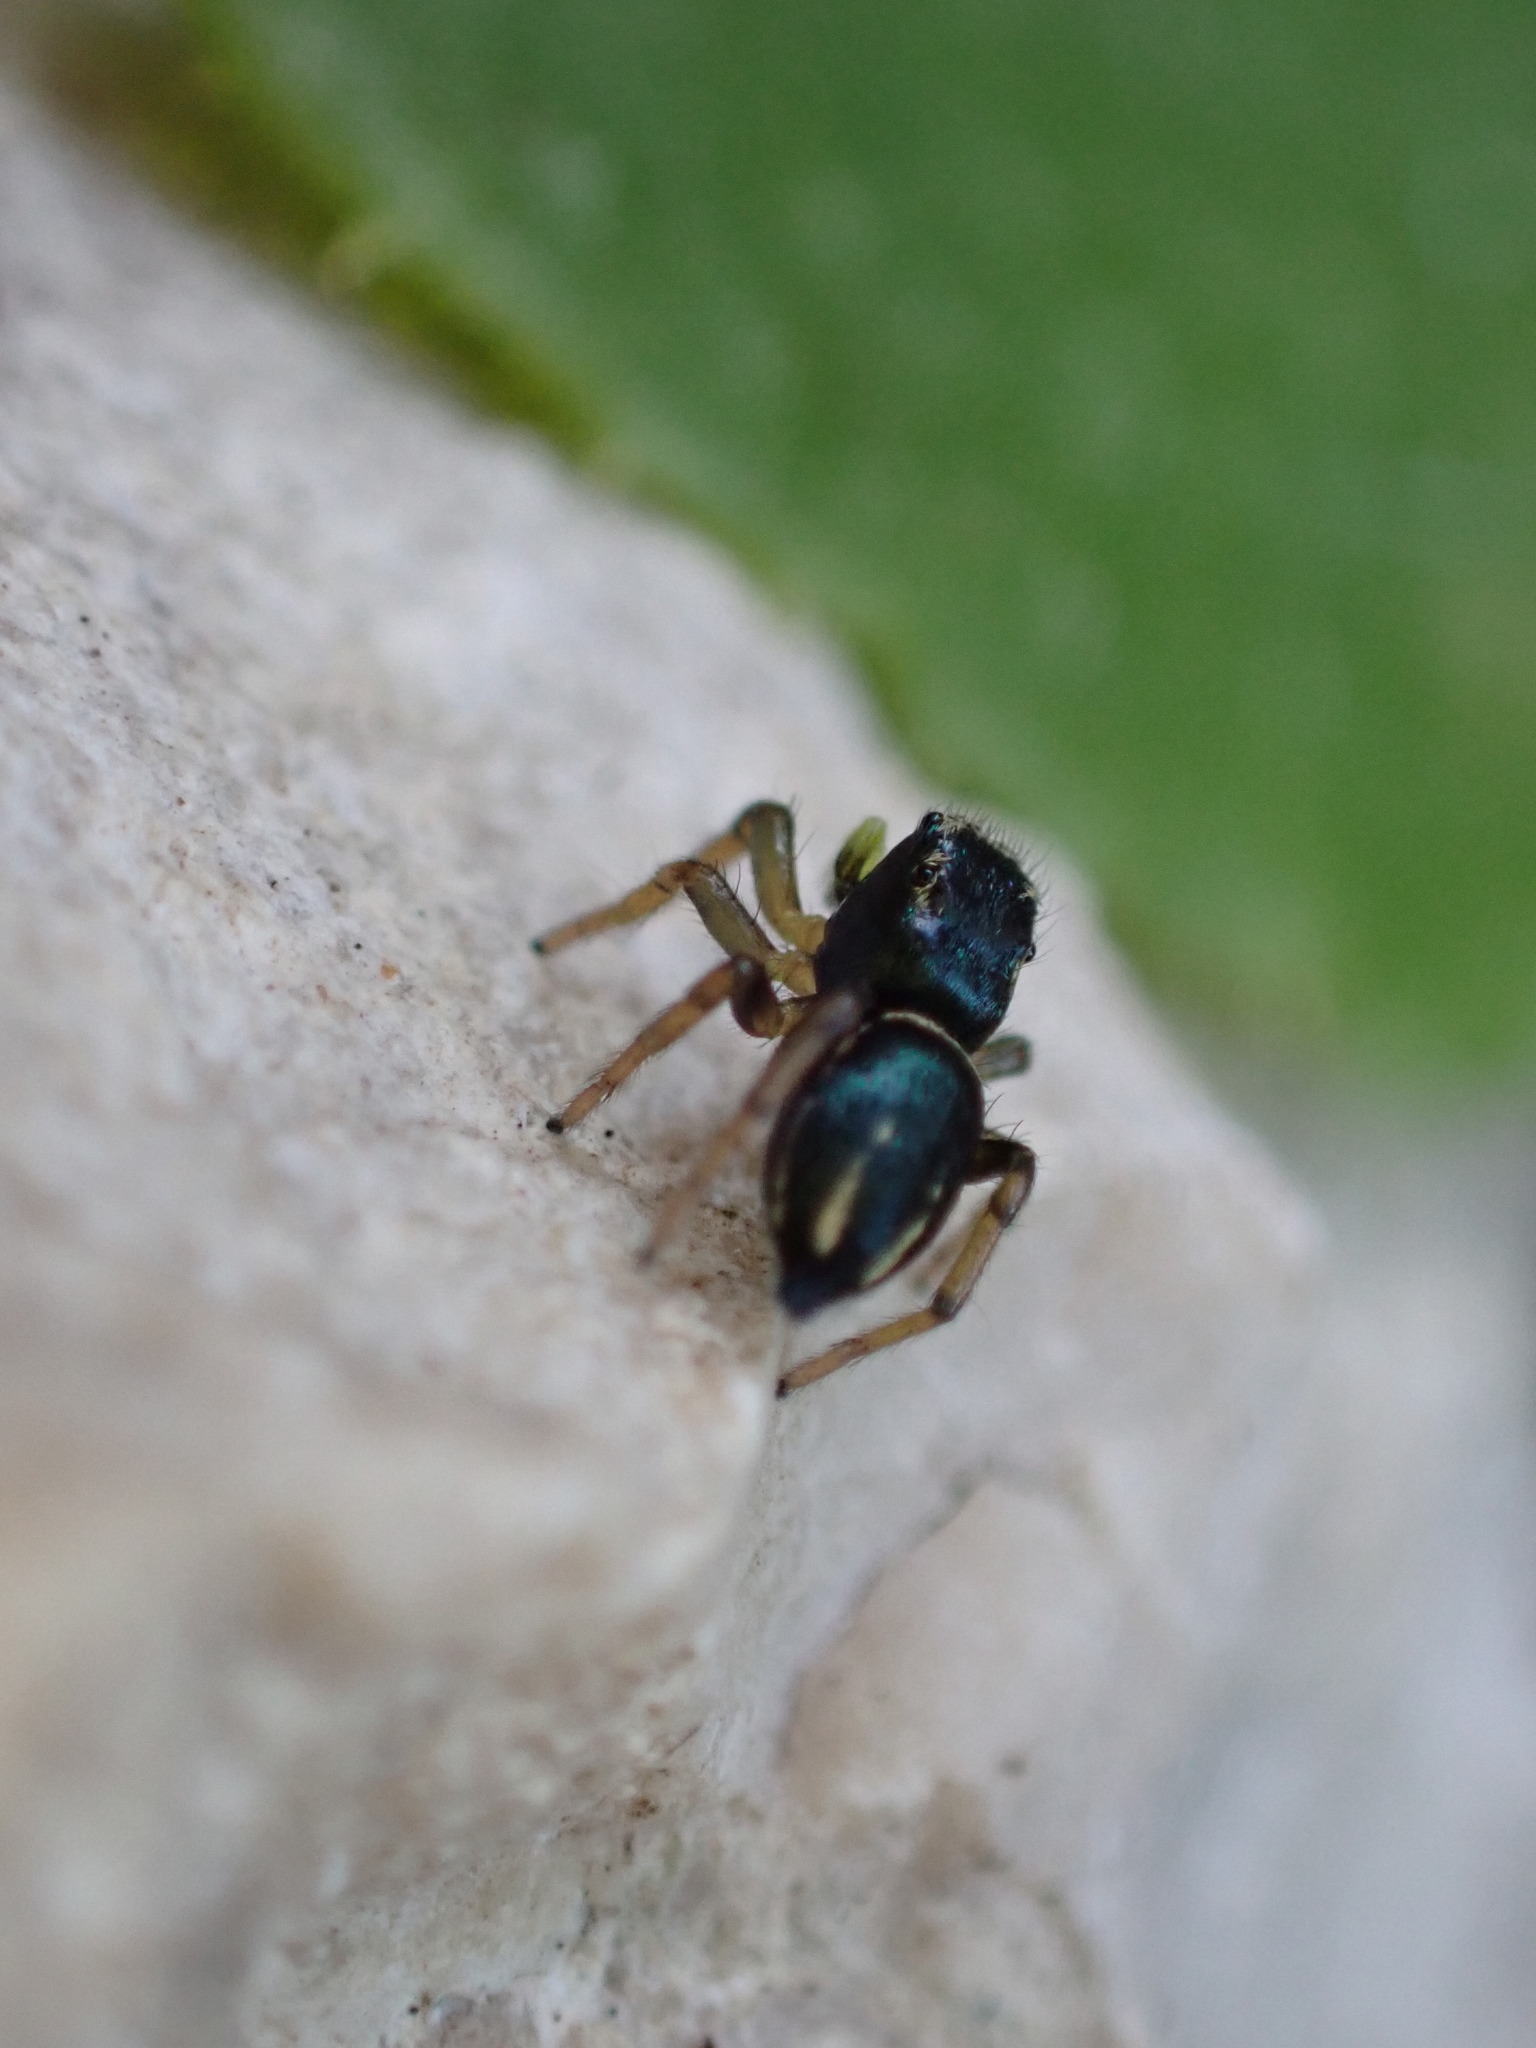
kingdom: Animalia
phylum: Arthropoda
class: Arachnida
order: Araneae
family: Salticidae
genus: Heliophanus
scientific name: Heliophanus melinus
